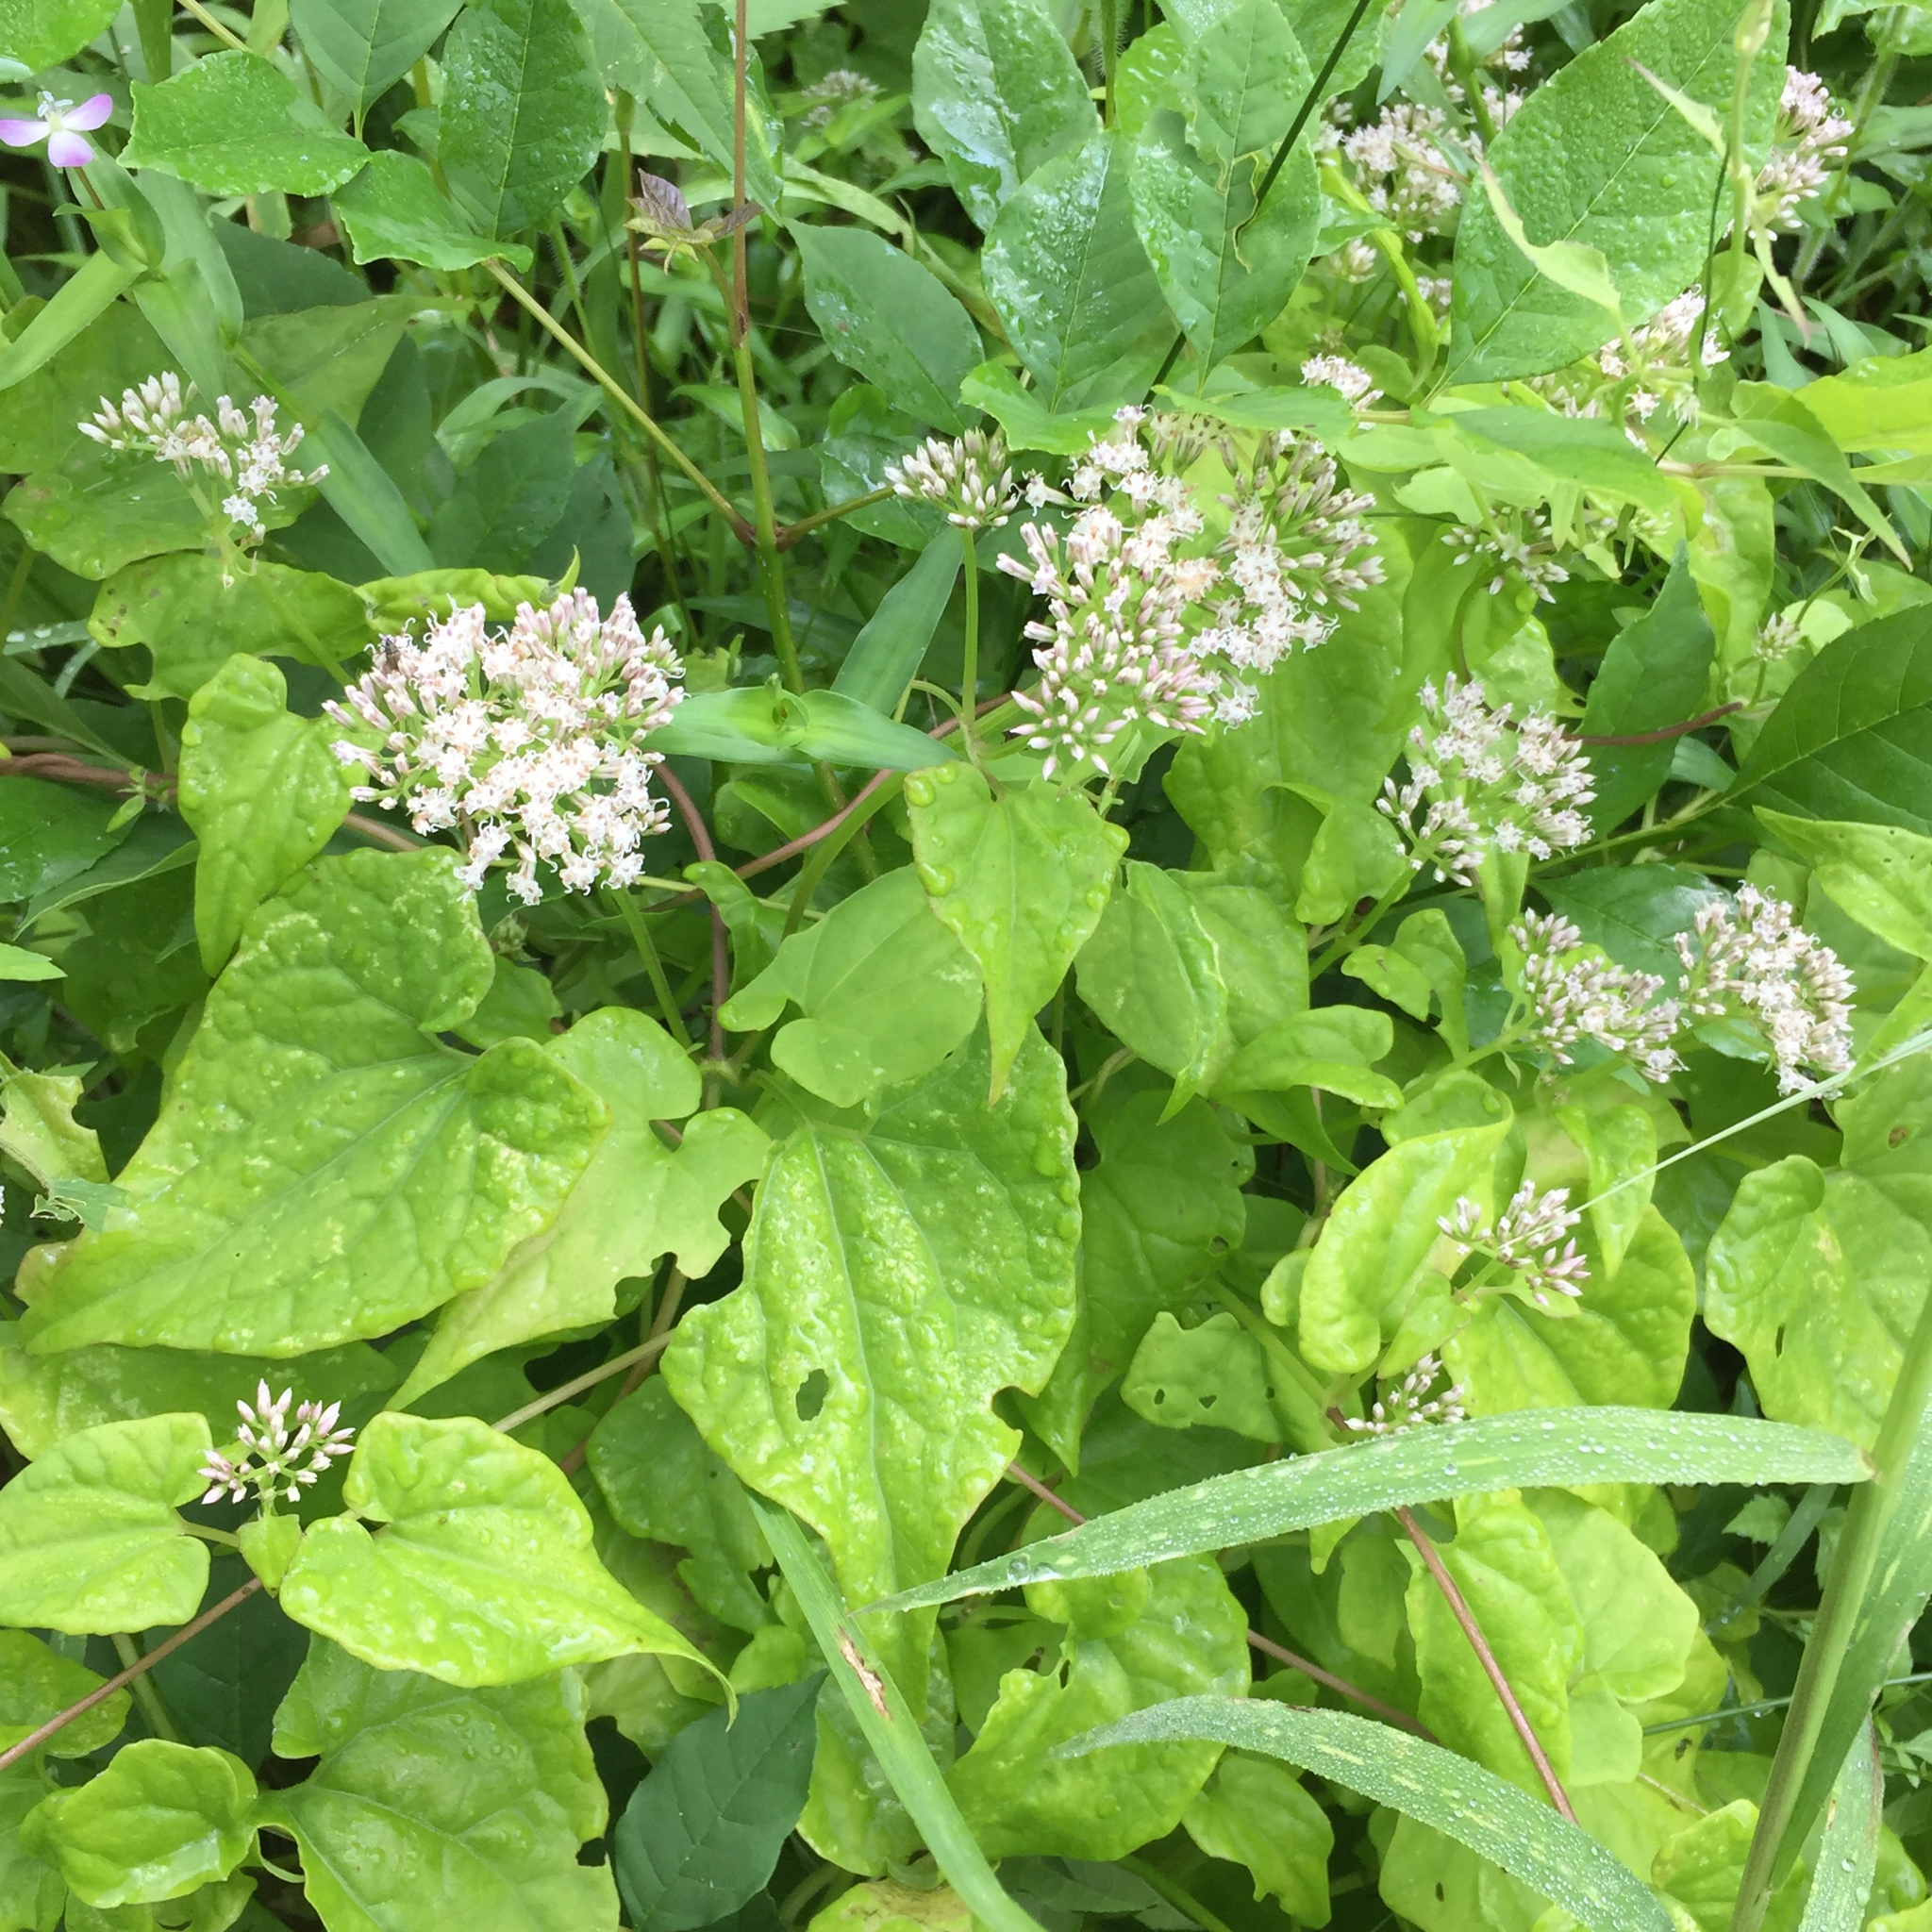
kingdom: Plantae
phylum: Tracheophyta
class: Magnoliopsida
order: Asterales
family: Asteraceae
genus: Mikania
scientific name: Mikania scandens
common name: Climbing hempvine
